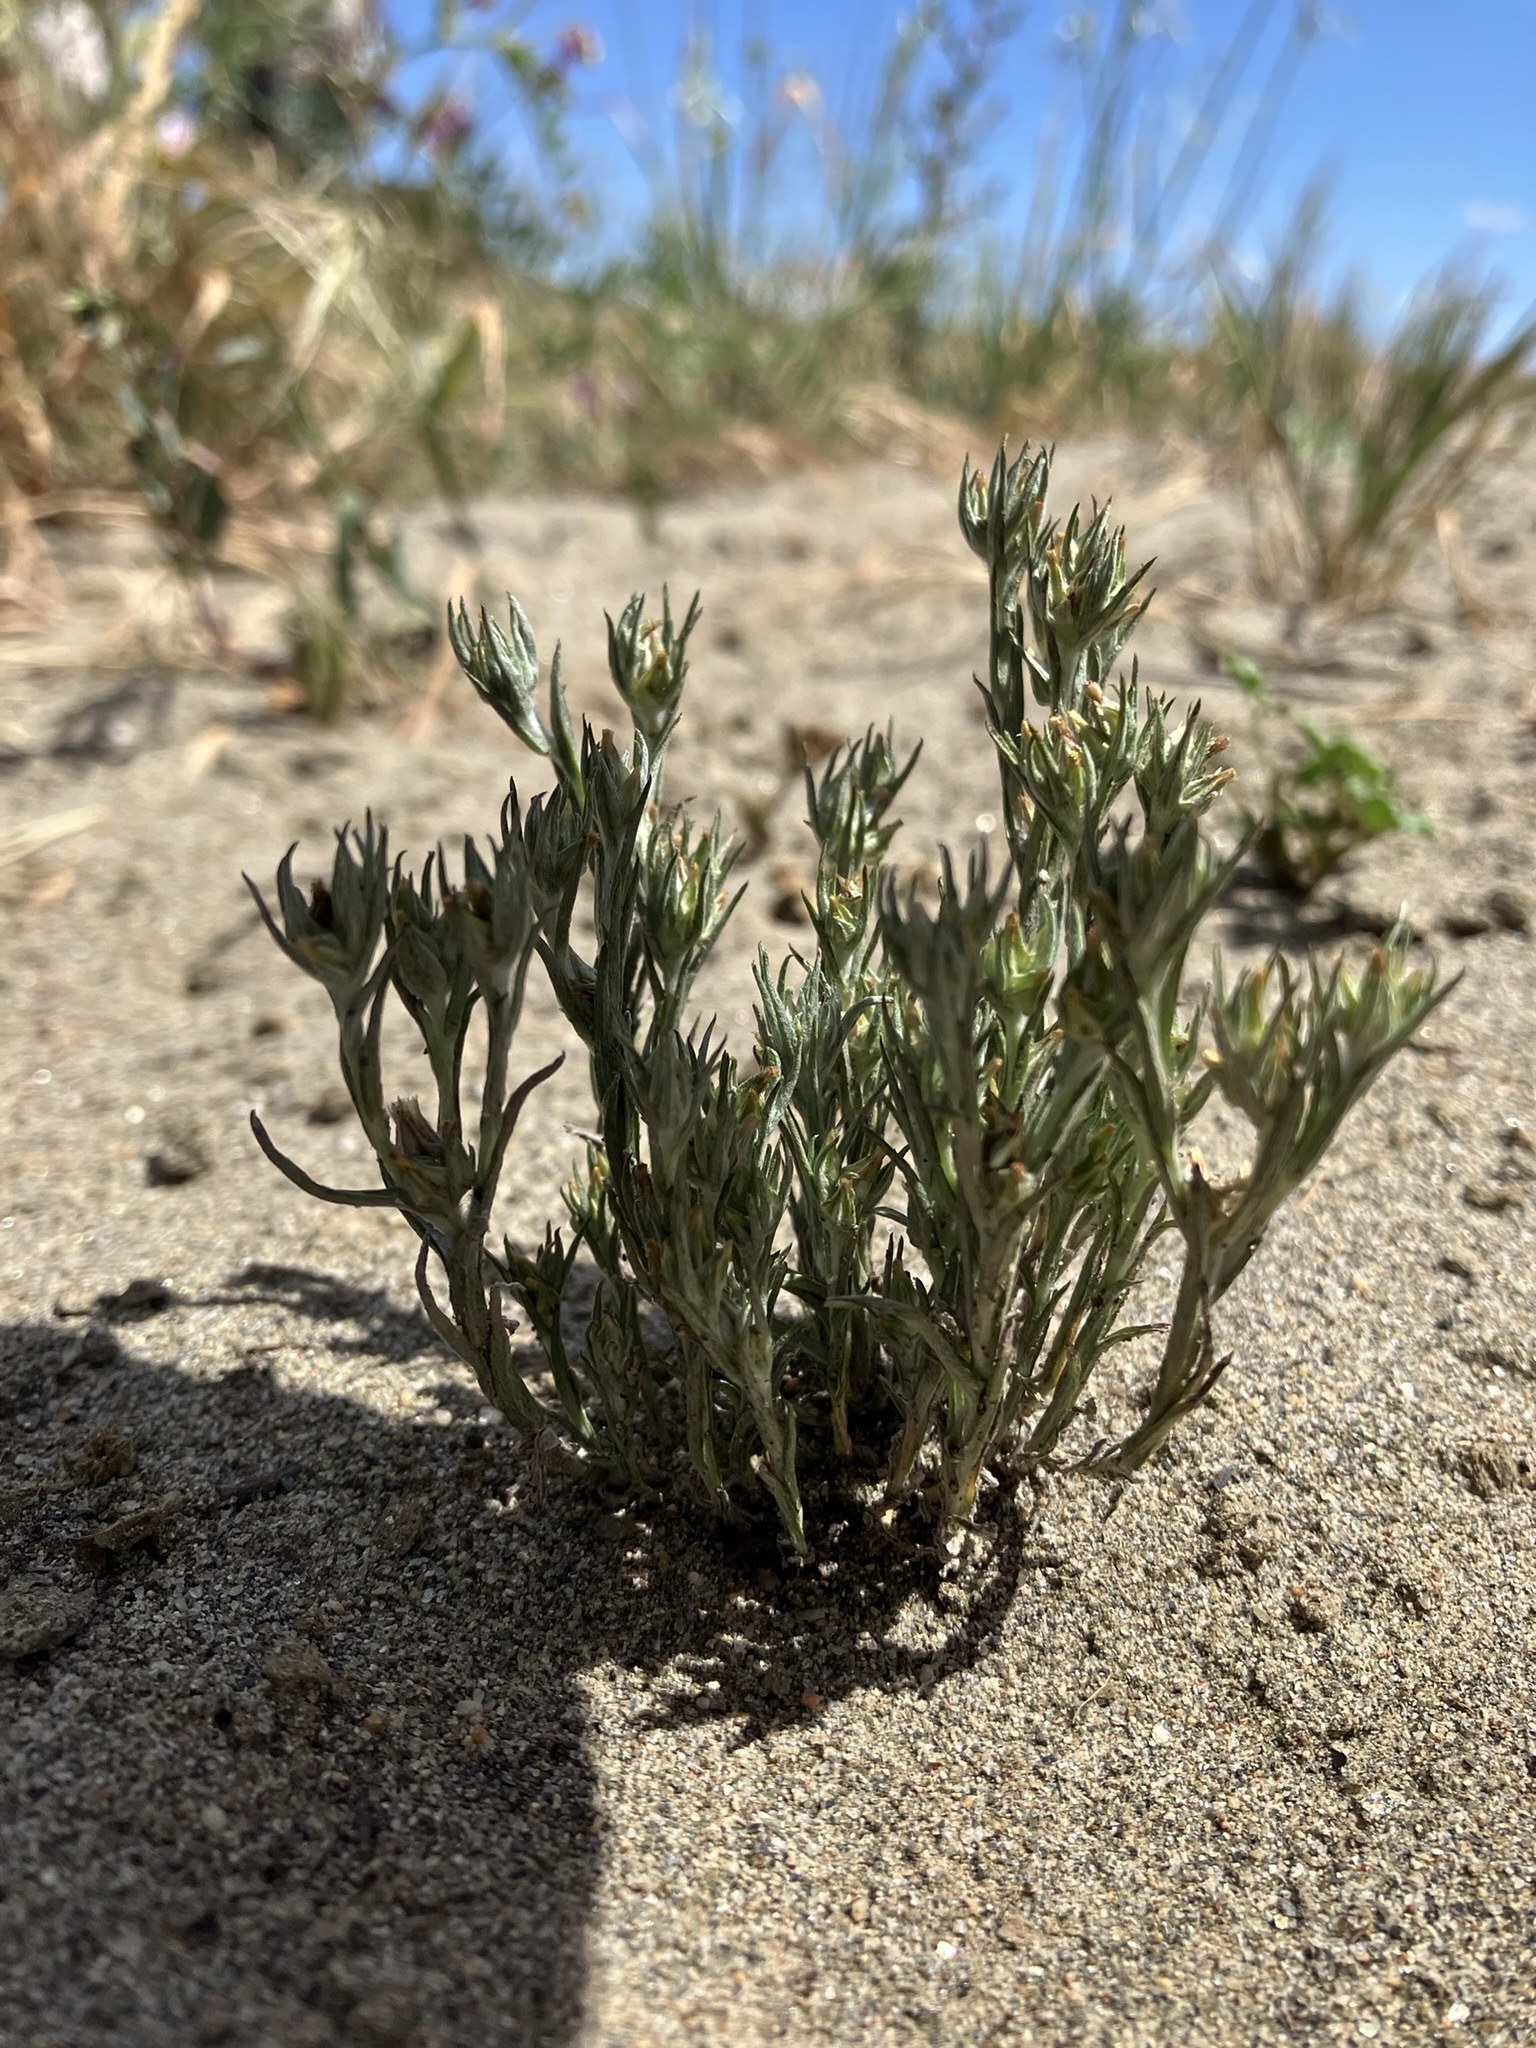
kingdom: Plantae
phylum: Tracheophyta
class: Magnoliopsida
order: Asterales
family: Asteraceae
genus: Logfia
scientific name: Logfia gallica
